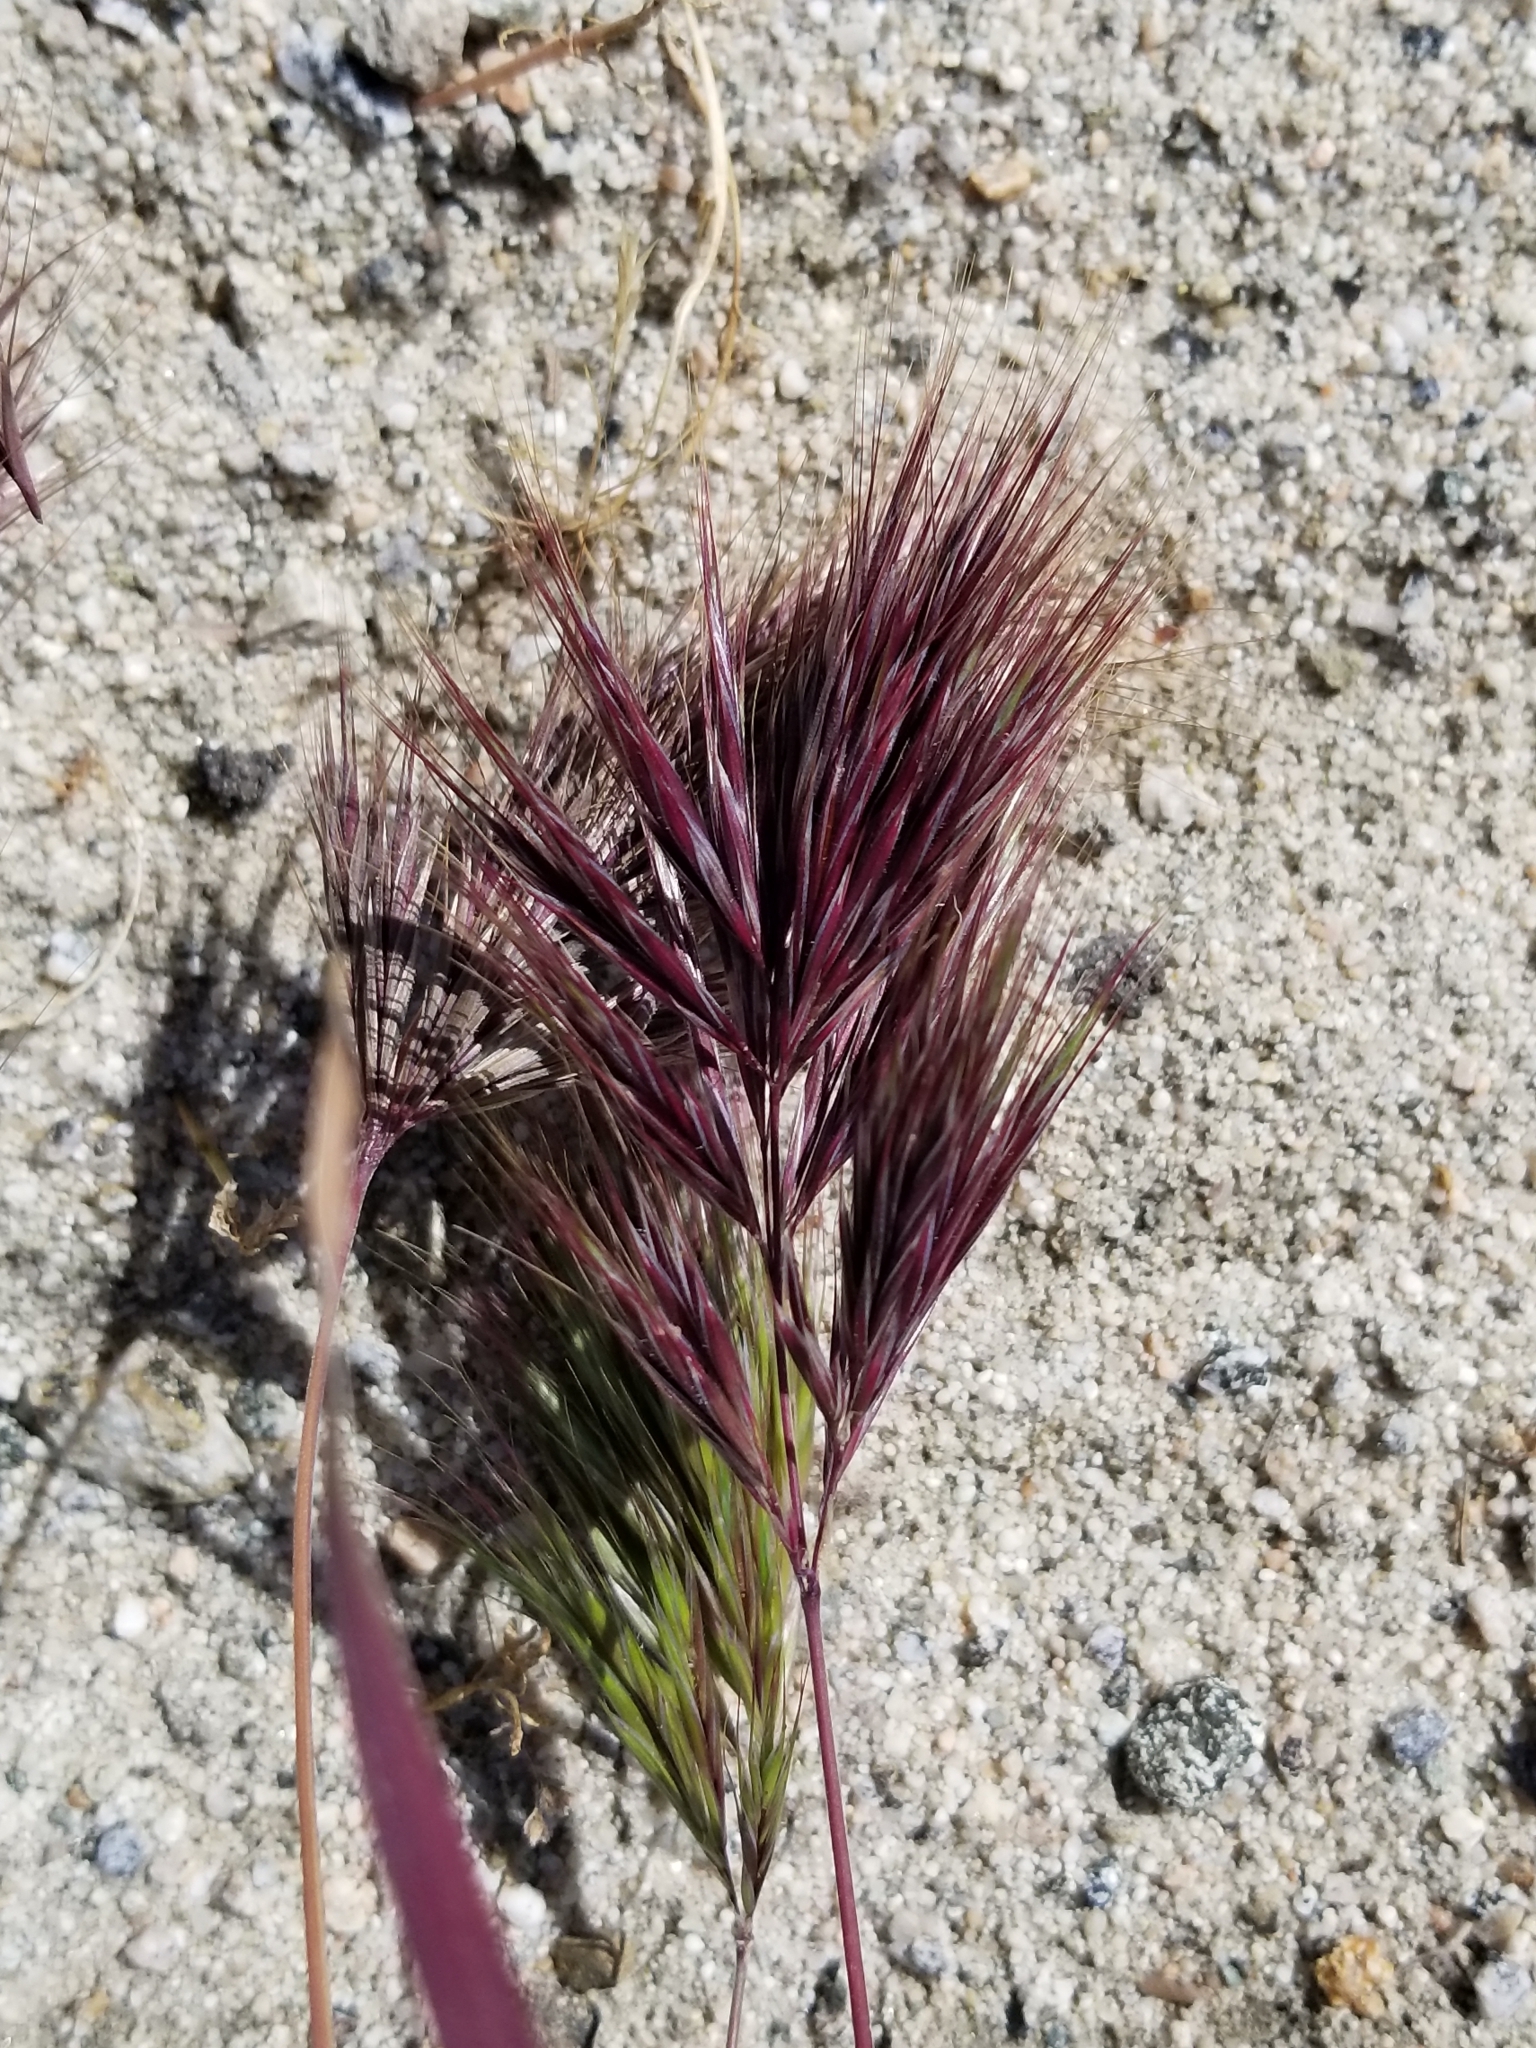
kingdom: Plantae
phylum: Tracheophyta
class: Liliopsida
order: Poales
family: Poaceae
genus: Bromus
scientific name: Bromus rubens
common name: Red brome
